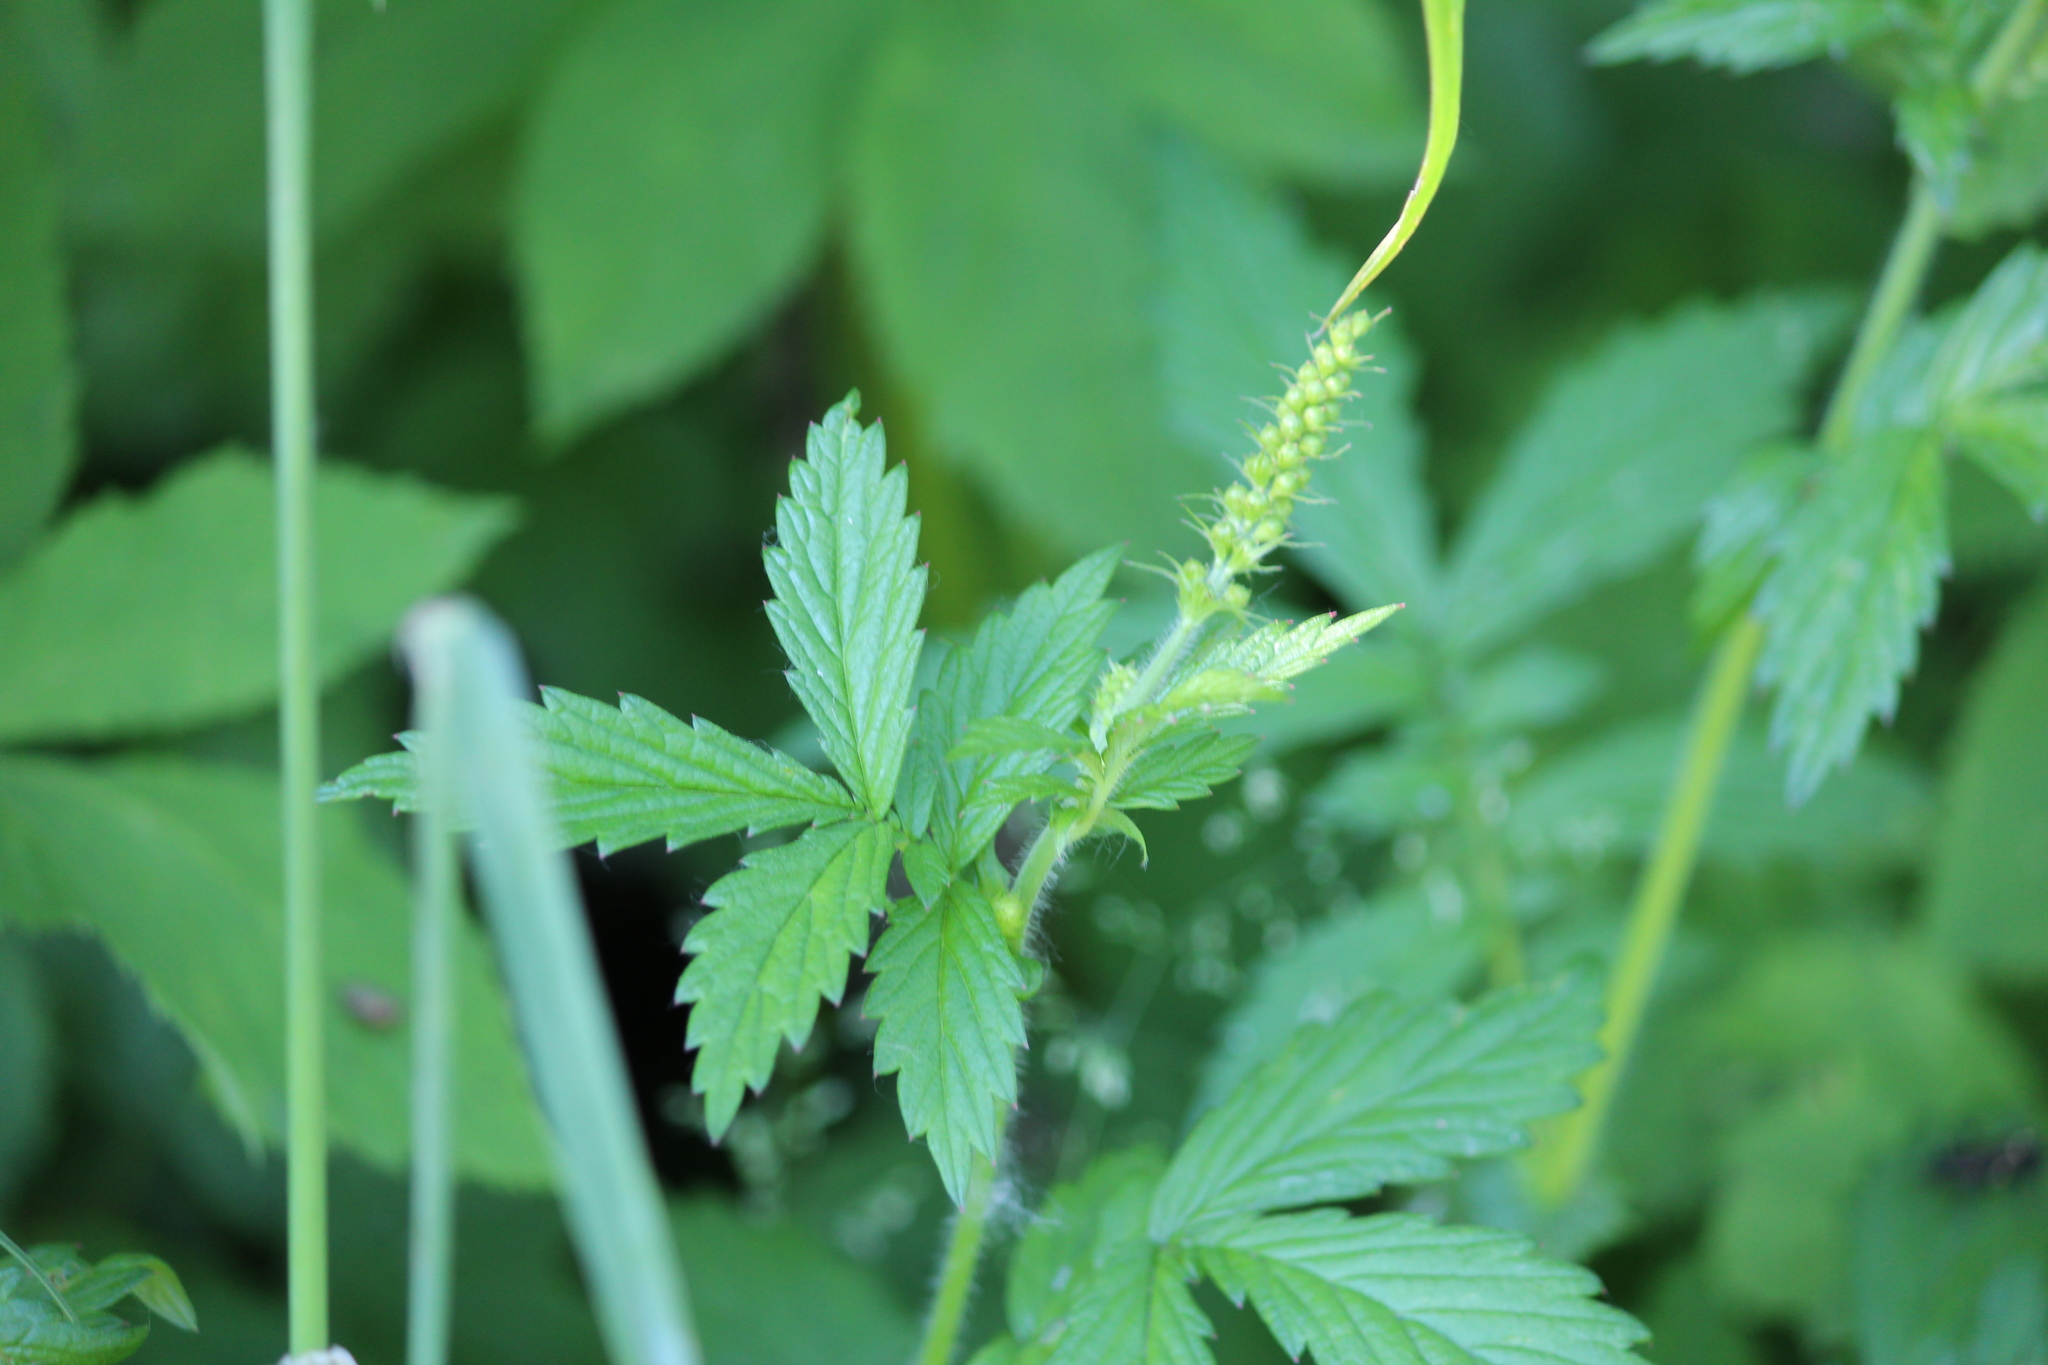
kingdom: Plantae
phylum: Tracheophyta
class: Magnoliopsida
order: Rosales
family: Rosaceae
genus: Agrimonia
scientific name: Agrimonia eupatoria
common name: Agrimony
